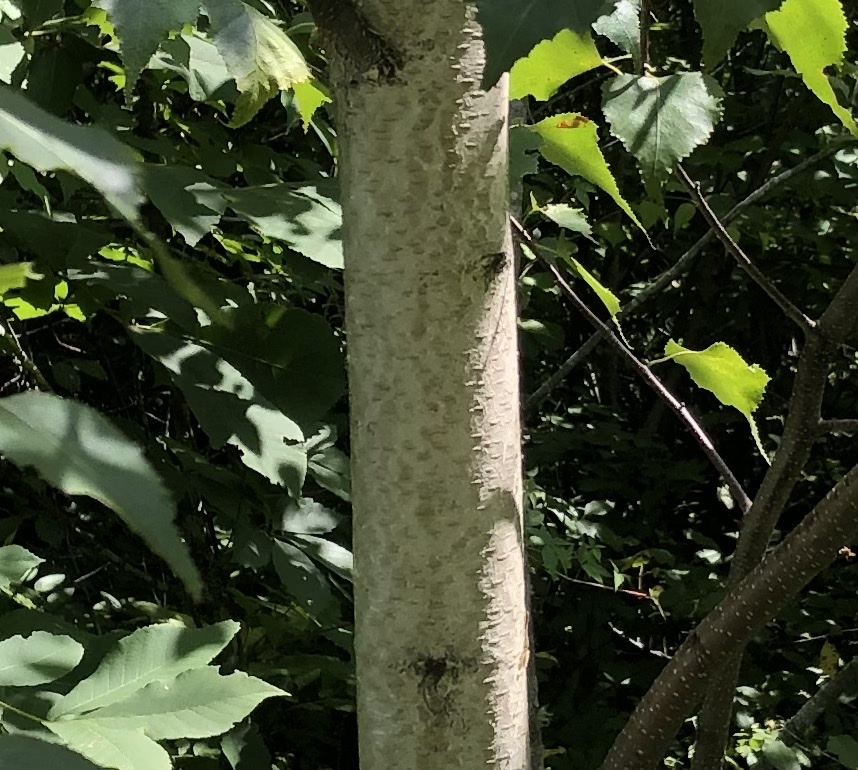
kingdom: Plantae
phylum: Tracheophyta
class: Magnoliopsida
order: Fagales
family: Betulaceae
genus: Betula
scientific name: Betula populifolia
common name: Fire birch
